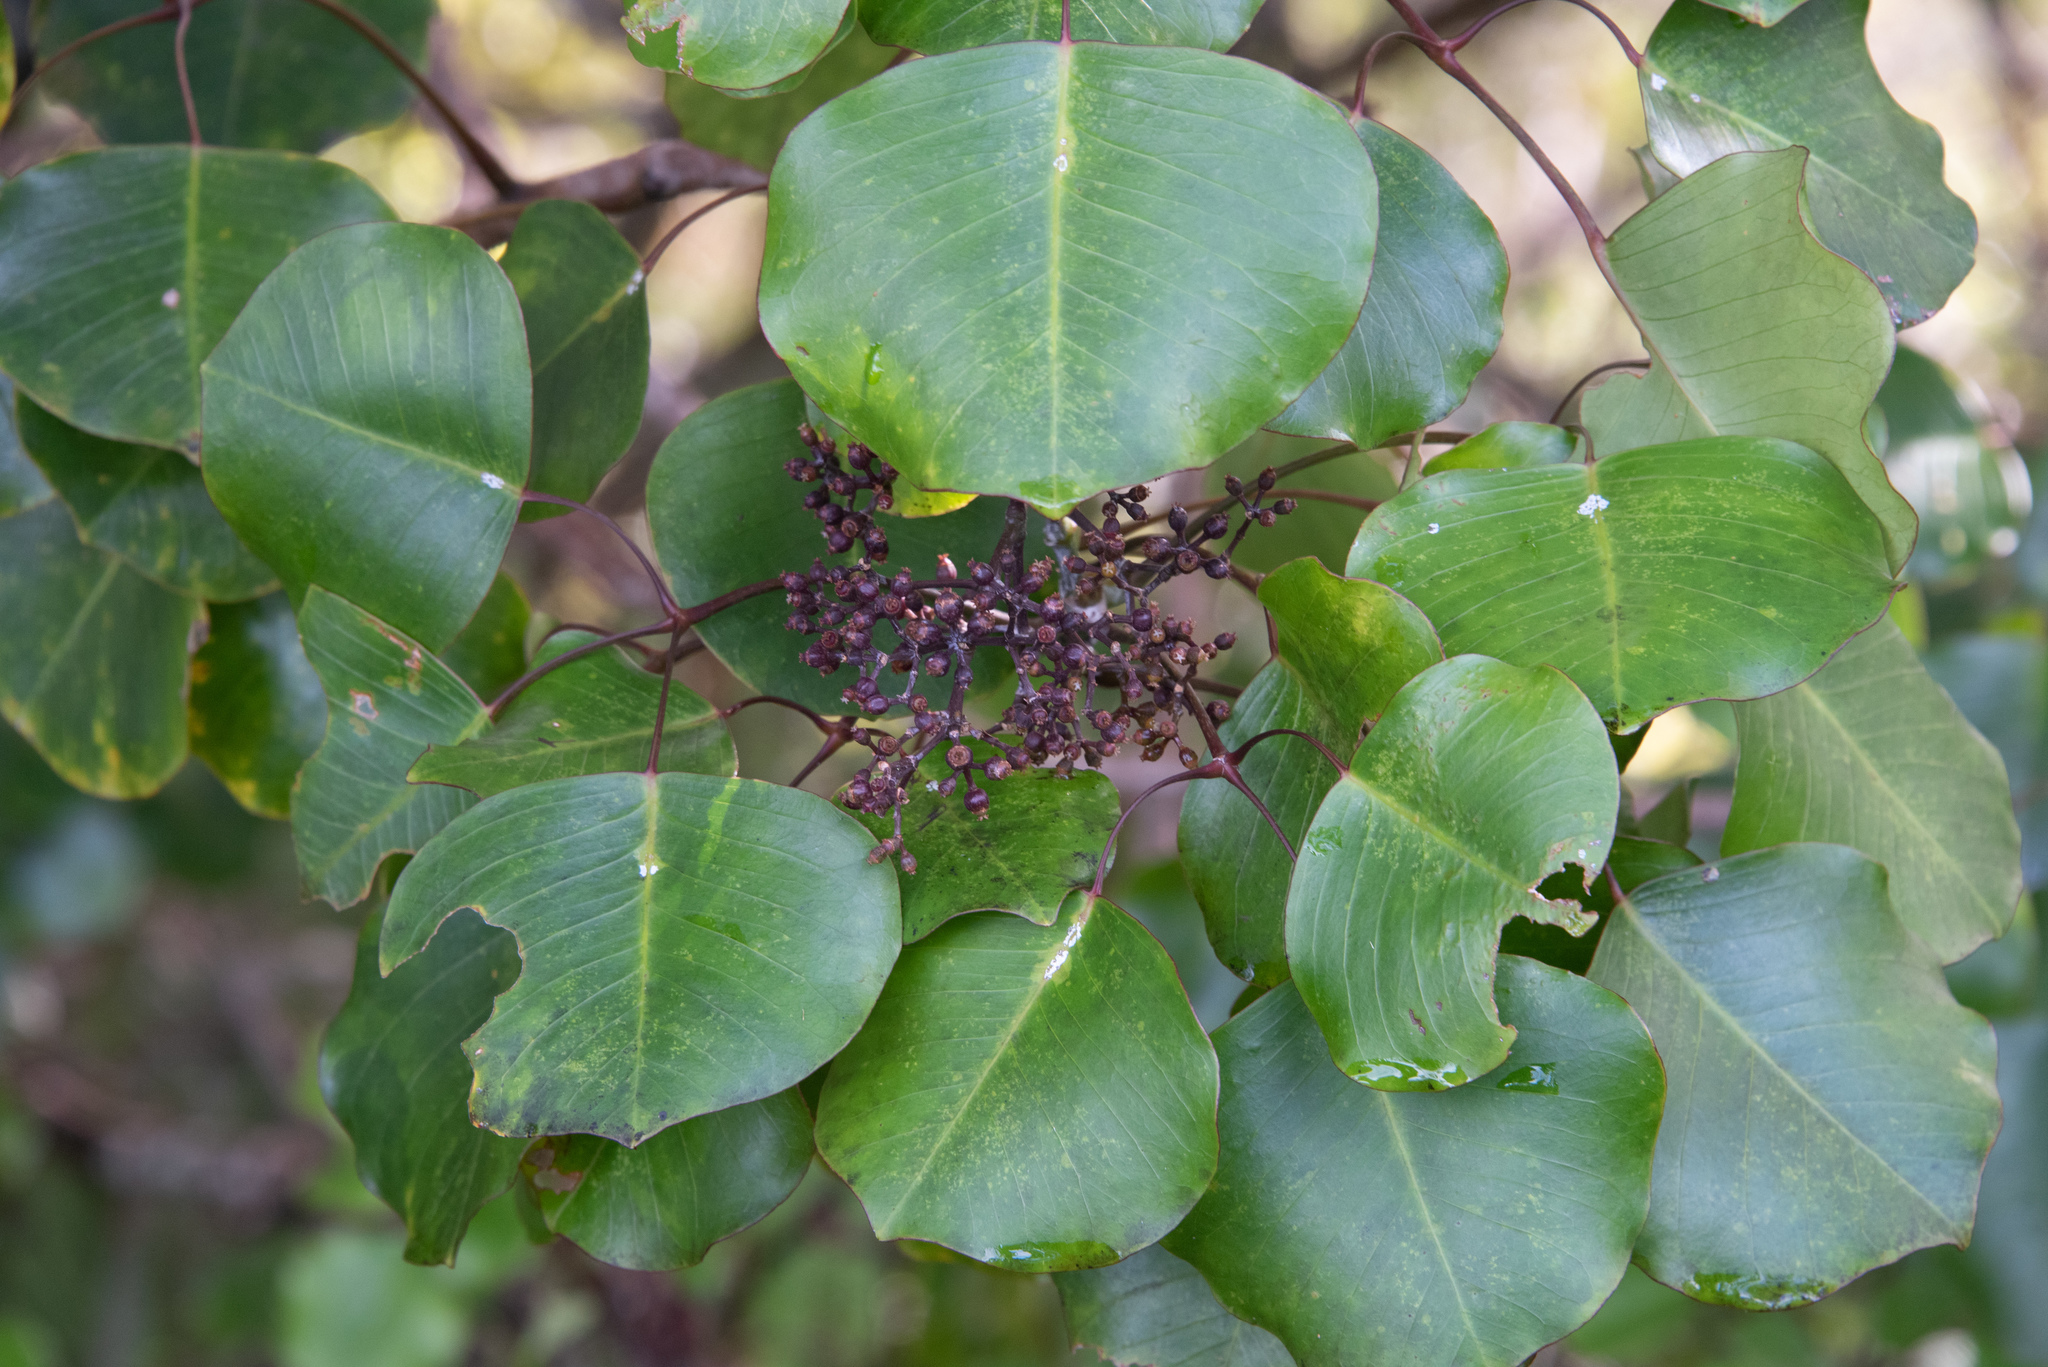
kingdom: Plantae
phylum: Tracheophyta
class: Magnoliopsida
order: Apiales
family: Araliaceae
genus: Cheirodendron
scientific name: Cheirodendron fauriei
